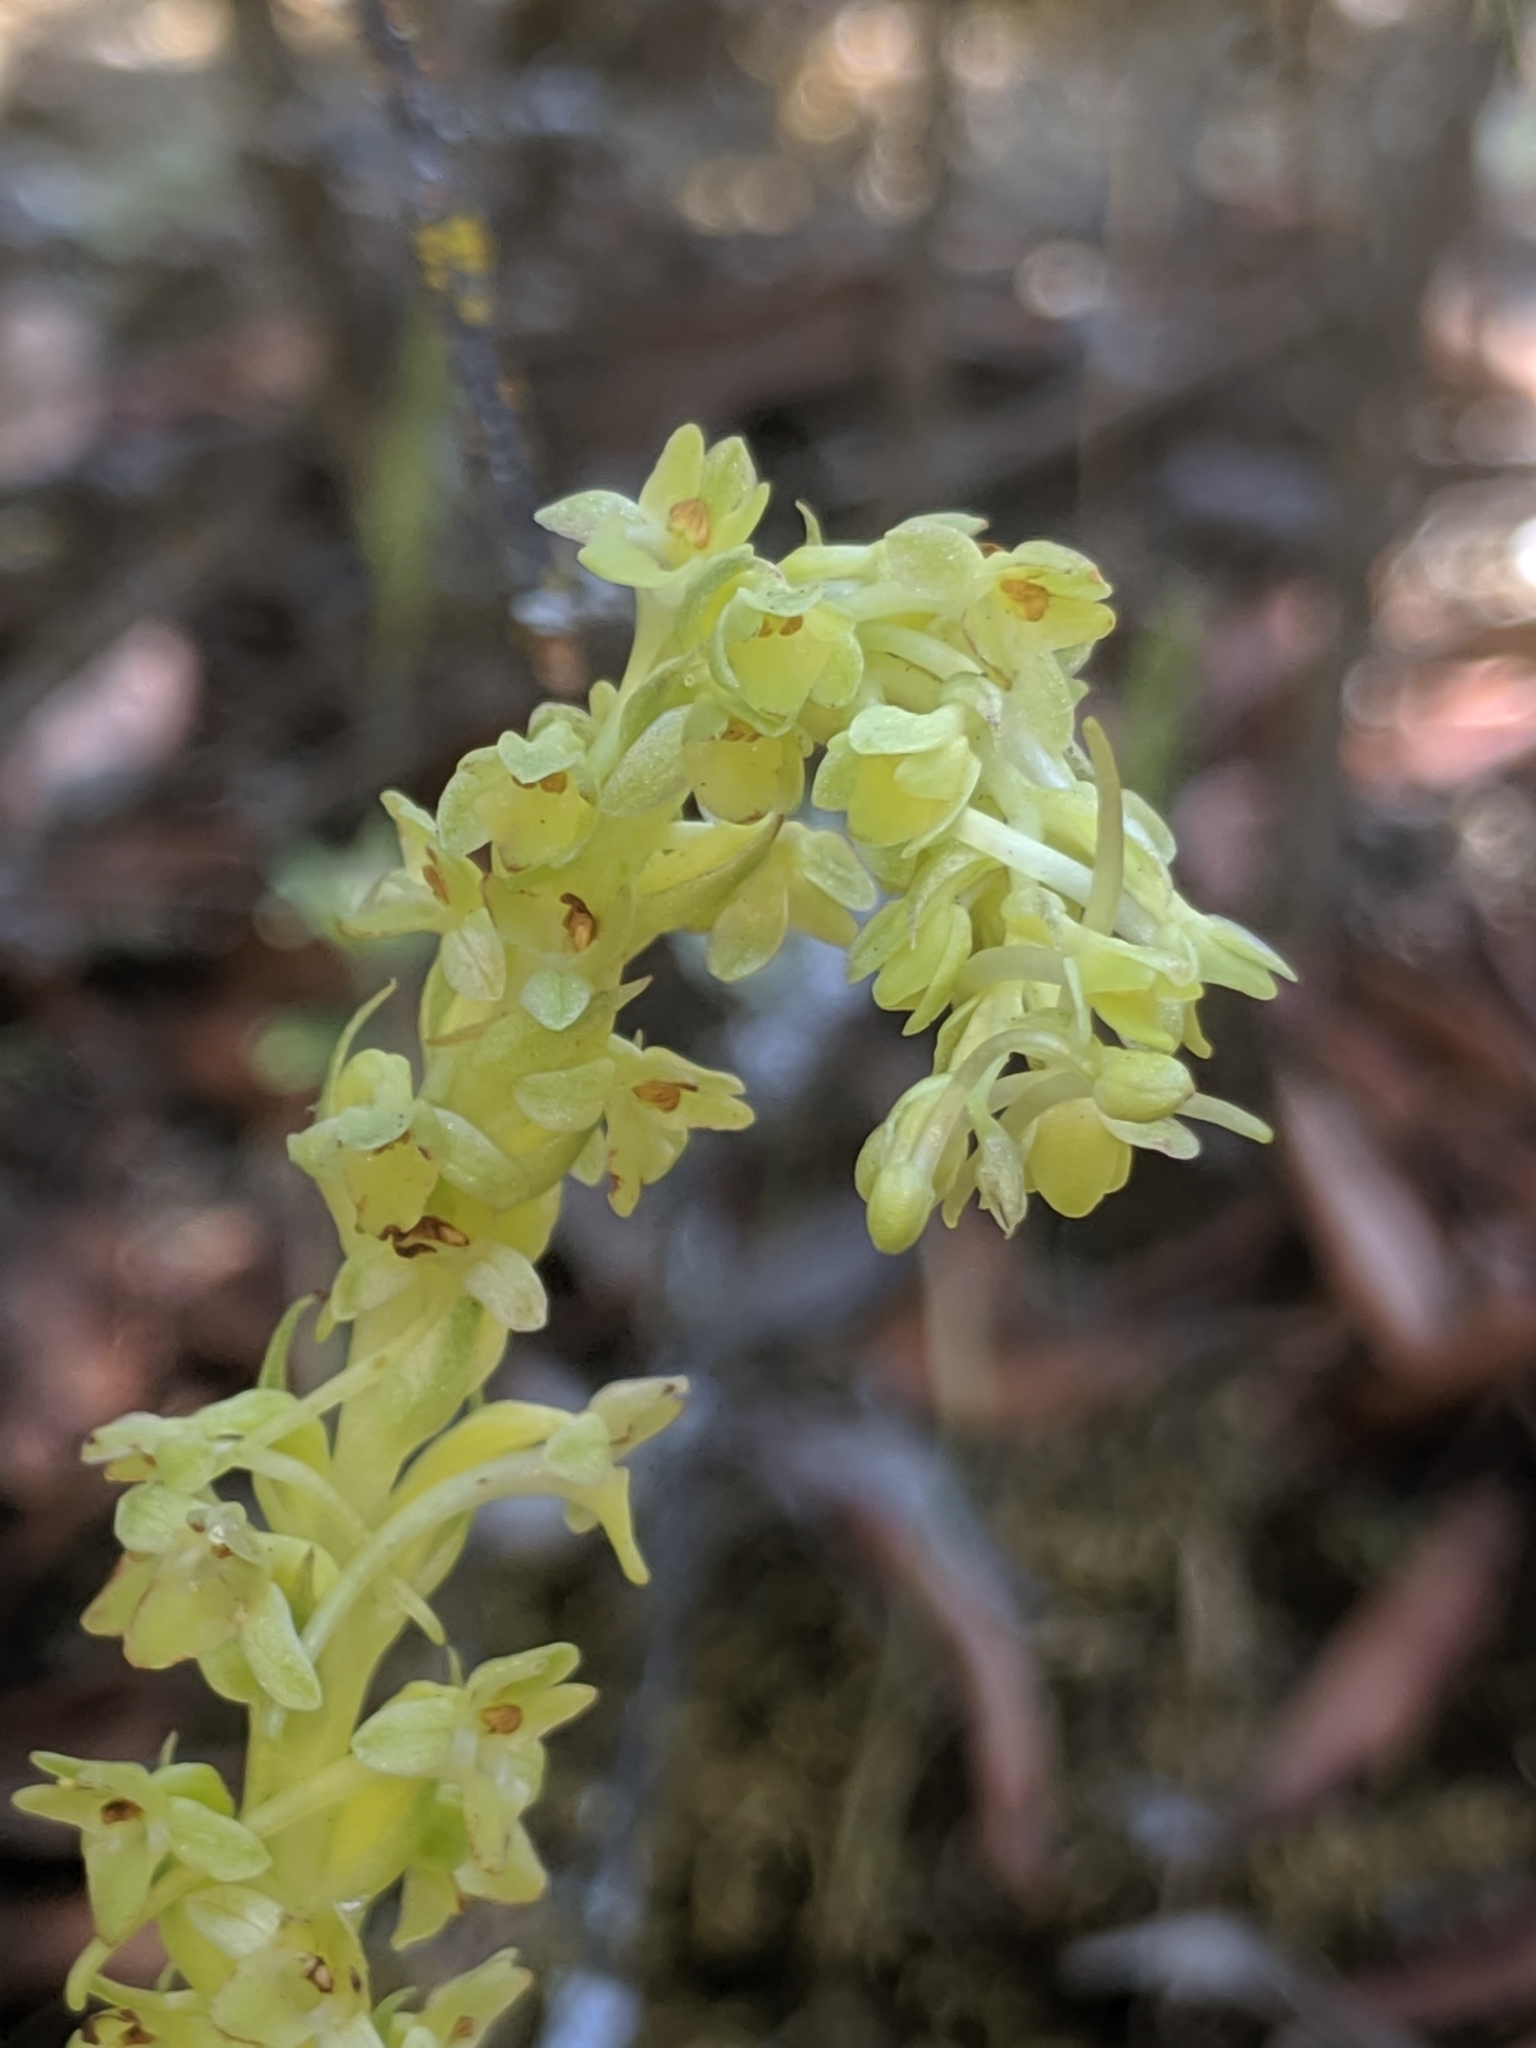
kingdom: Plantae
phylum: Tracheophyta
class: Liliopsida
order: Asparagales
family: Orchidaceae
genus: Platanthera
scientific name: Platanthera michaelii
